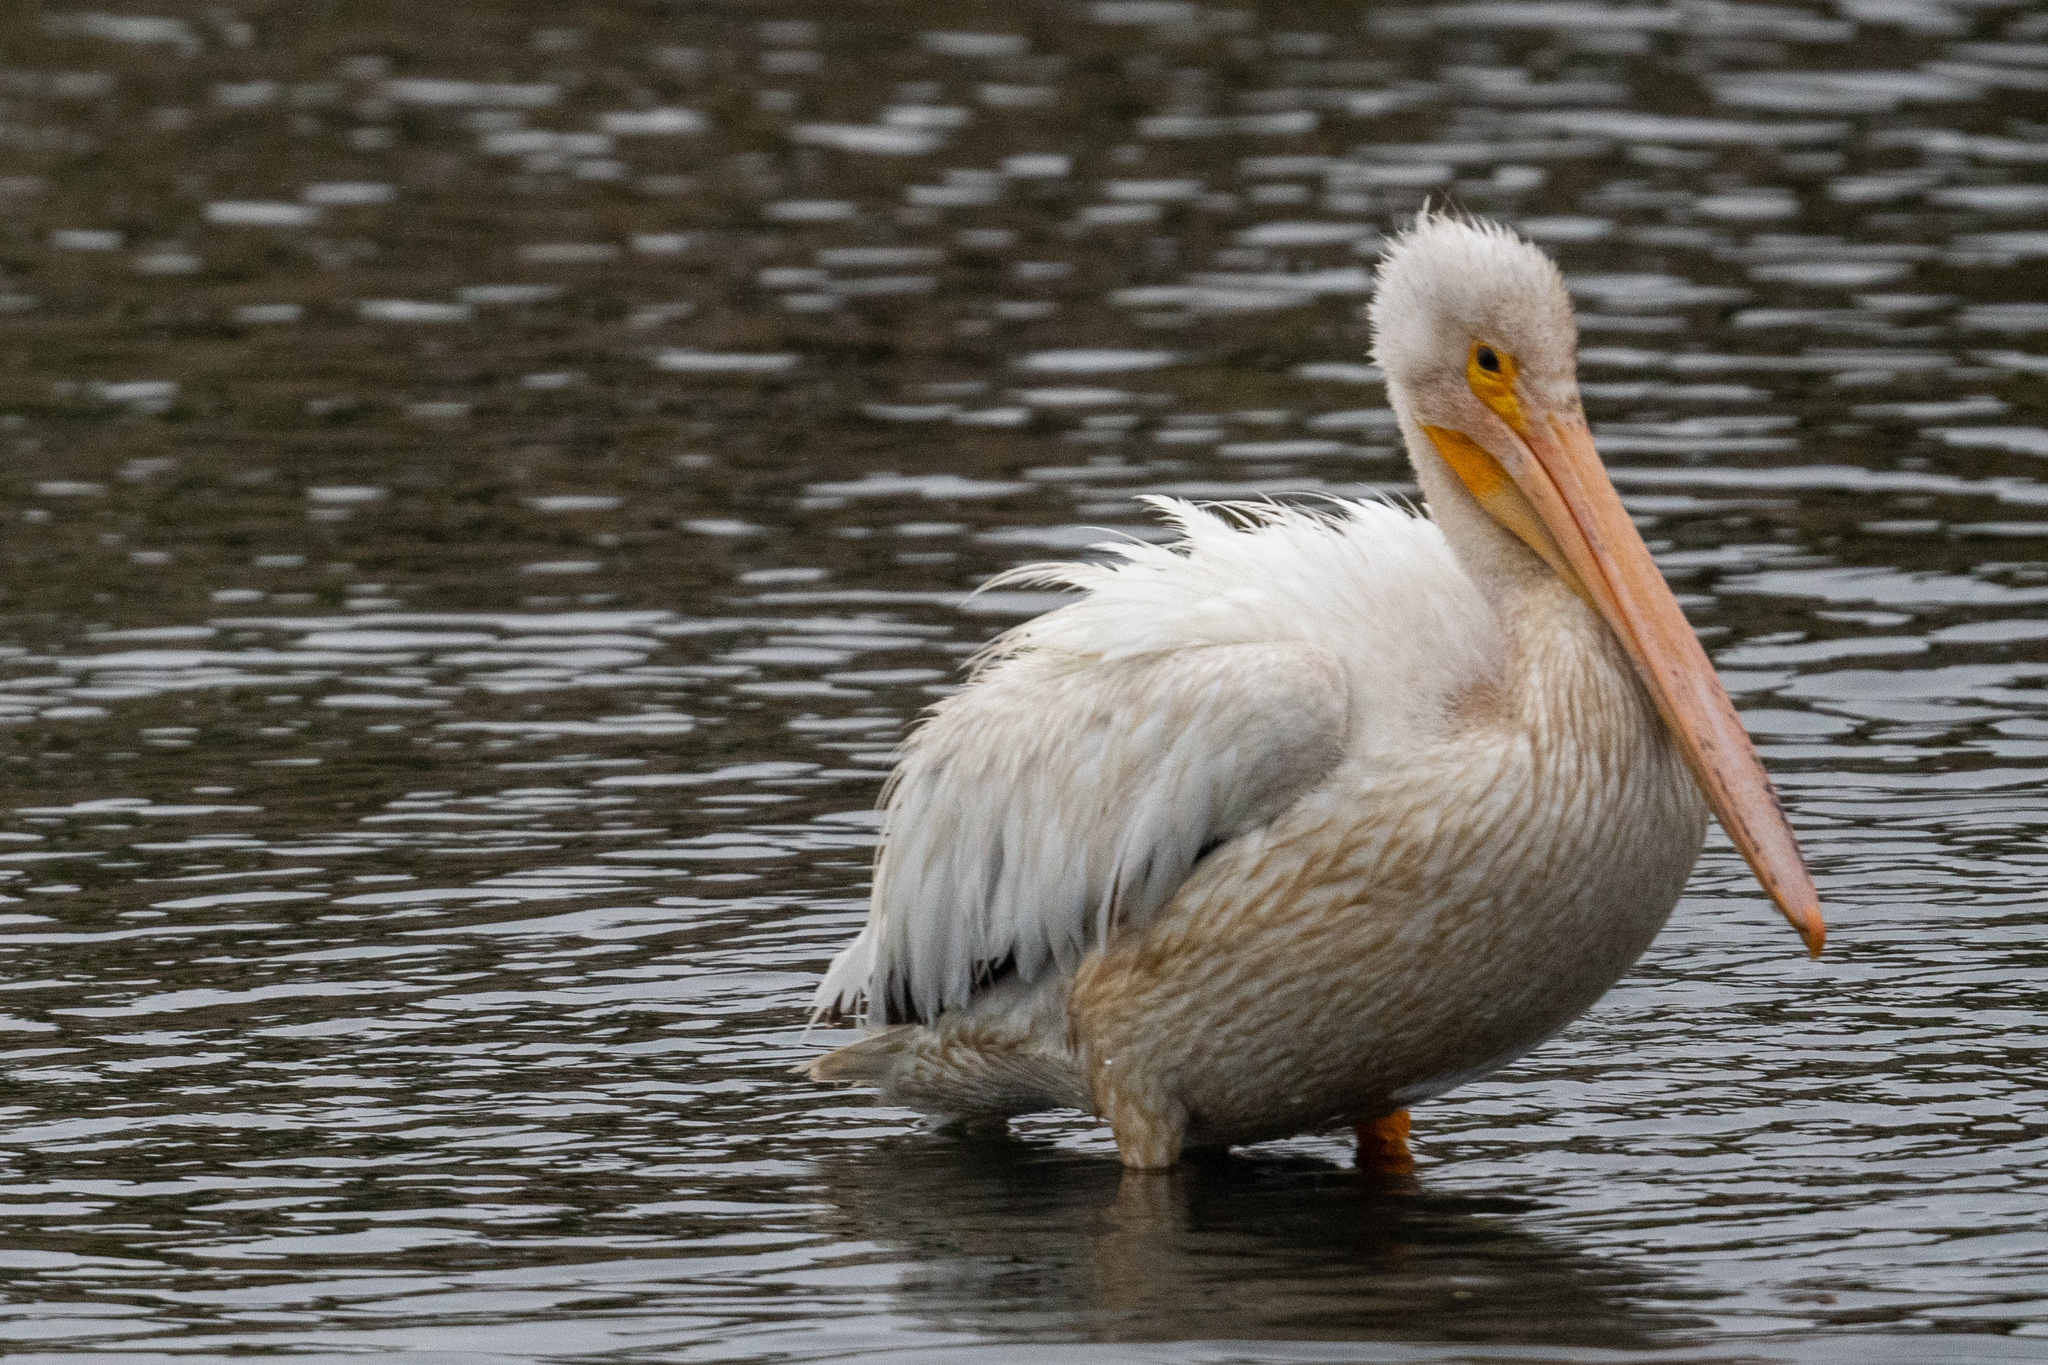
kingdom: Animalia
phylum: Chordata
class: Aves
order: Pelecaniformes
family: Pelecanidae
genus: Pelecanus
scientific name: Pelecanus erythrorhynchos
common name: American white pelican
